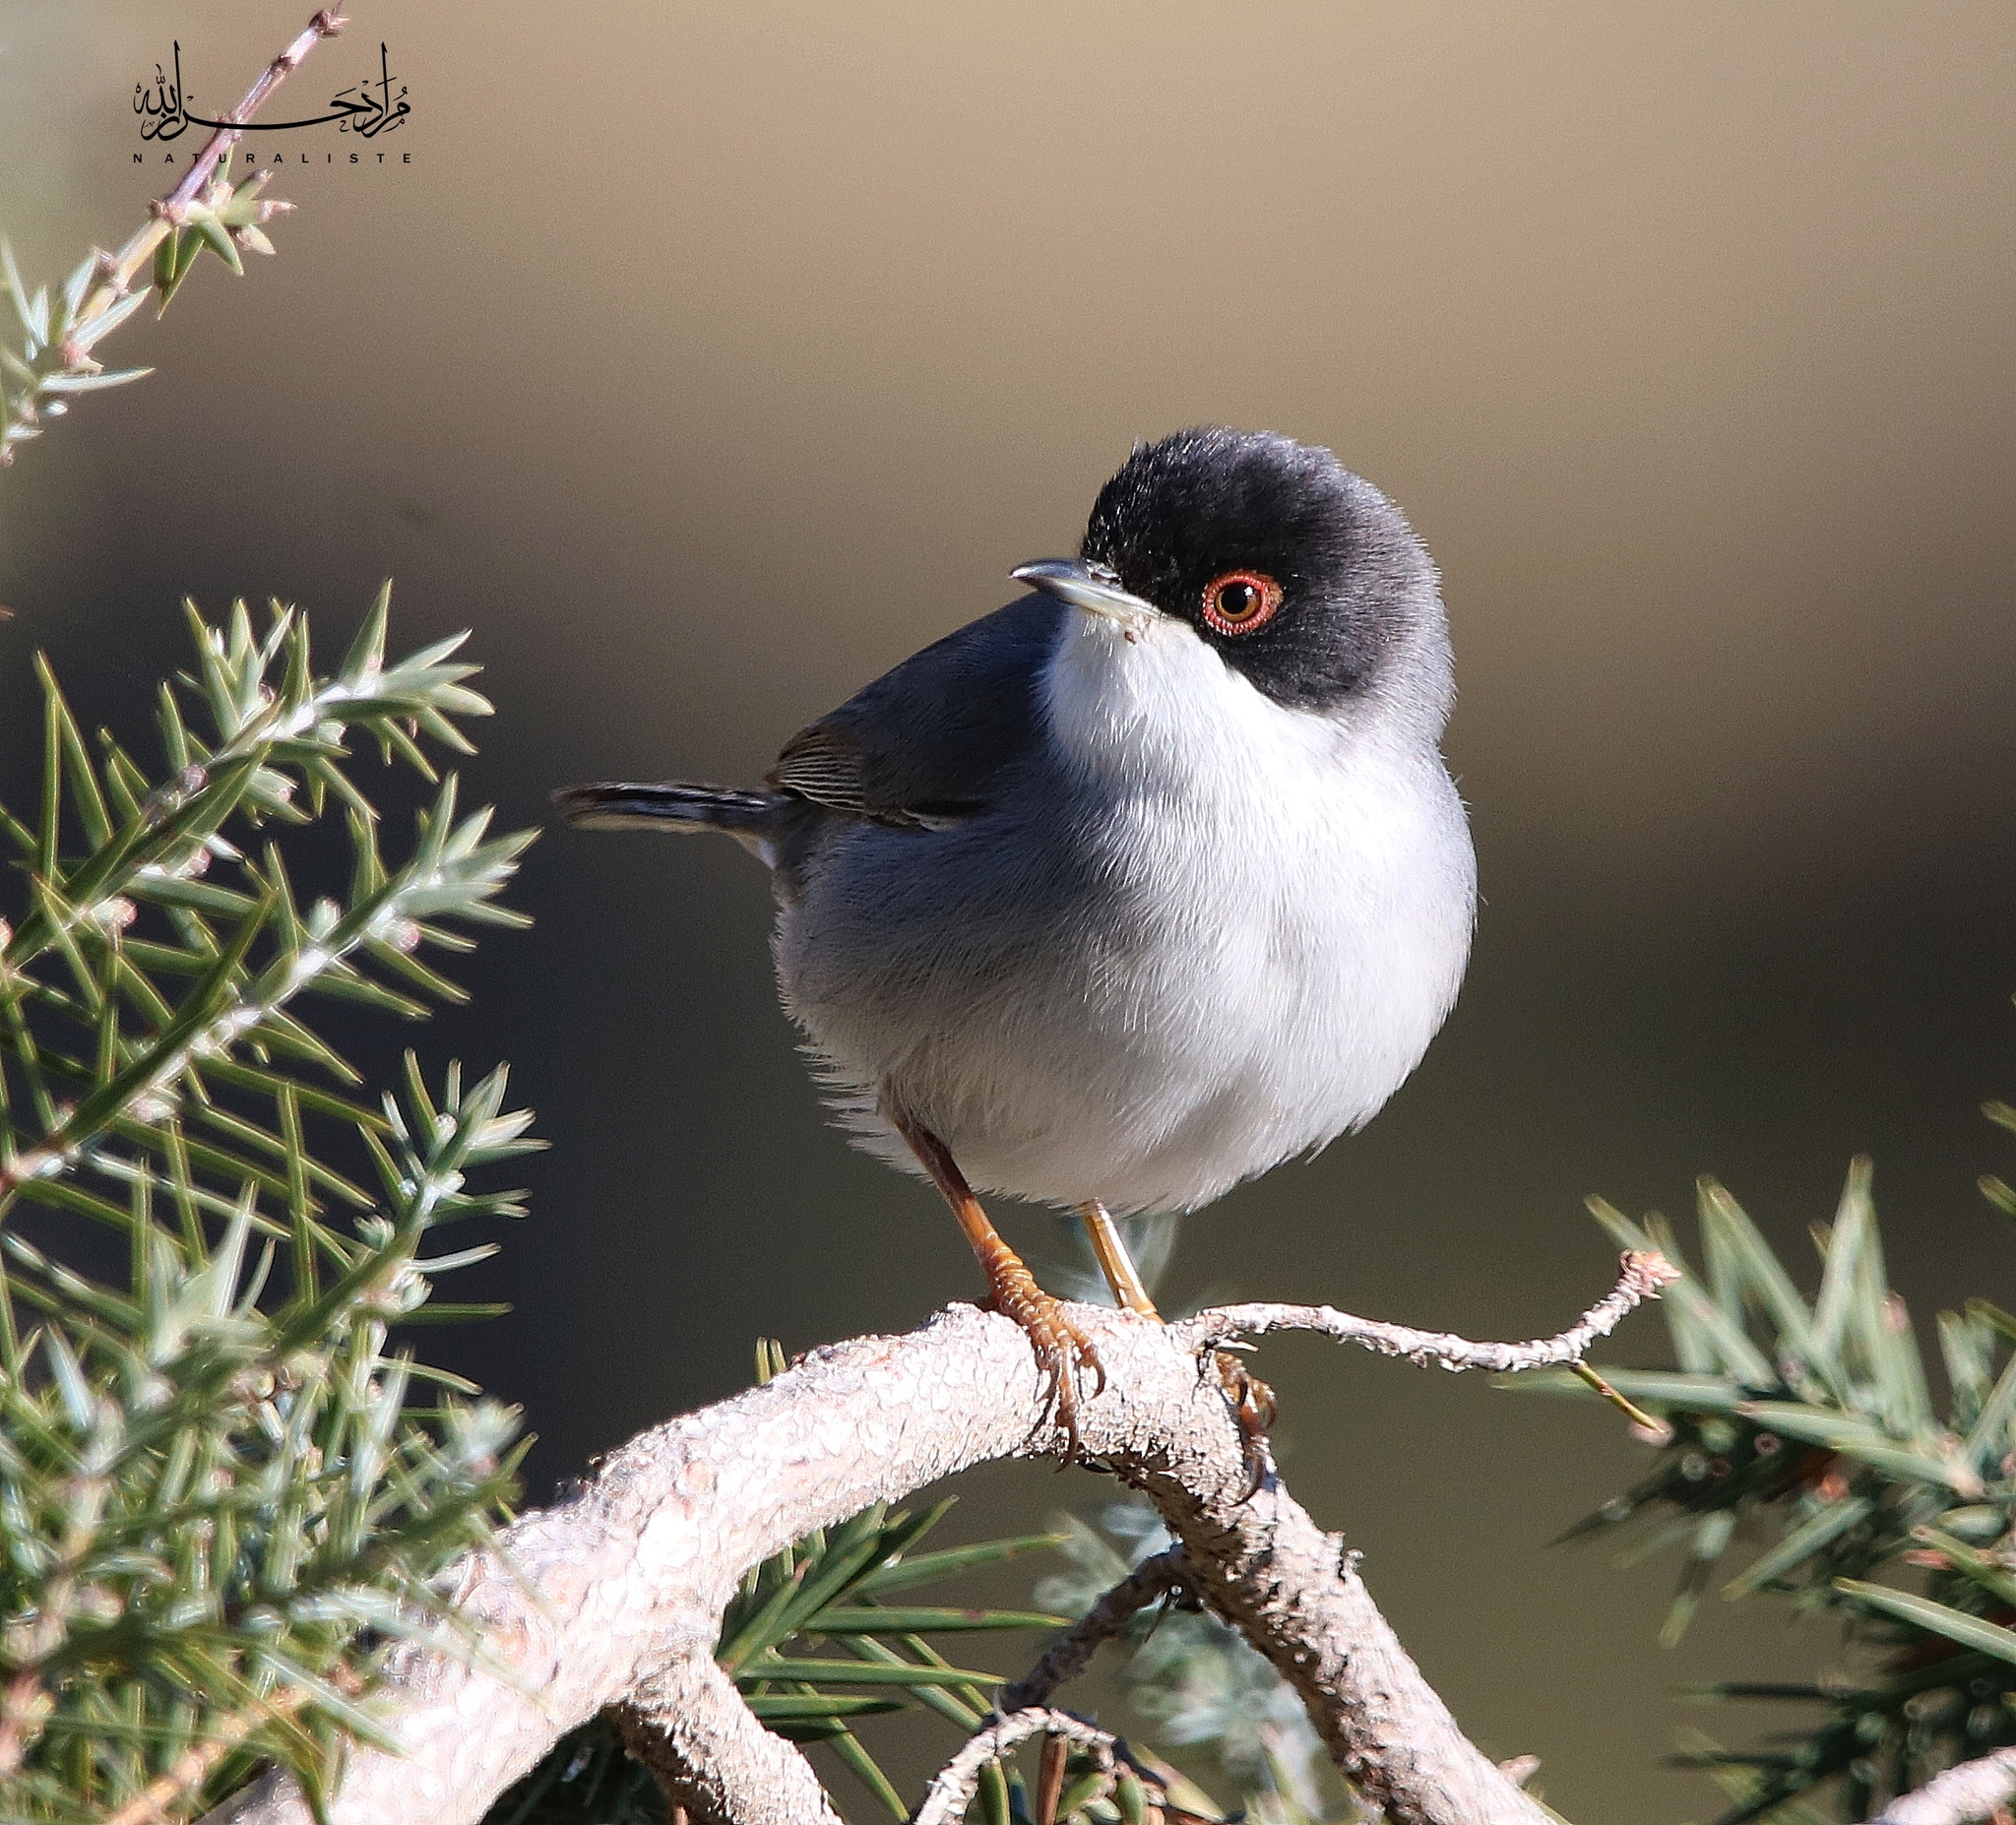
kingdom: Animalia
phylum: Chordata
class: Aves
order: Passeriformes
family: Sylviidae
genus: Curruca
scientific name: Curruca melanocephala
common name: Sardinian warbler
